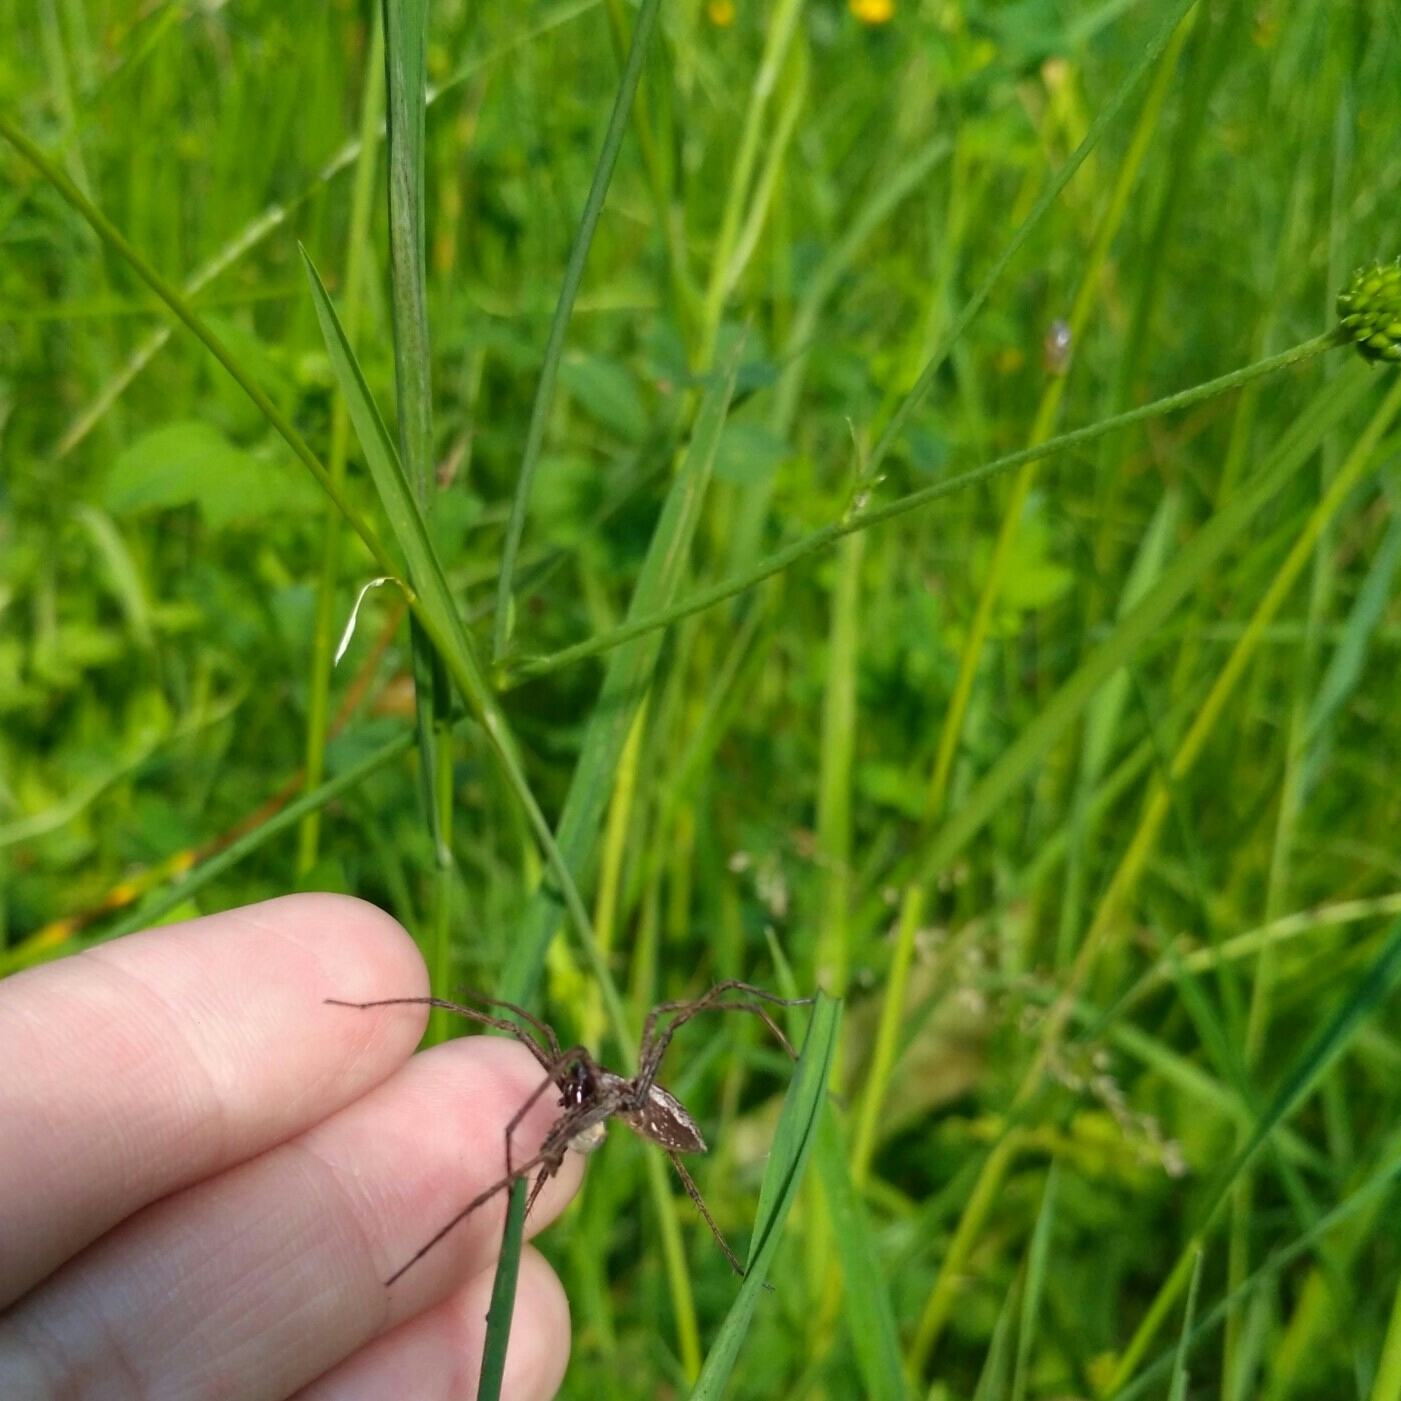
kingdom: Animalia
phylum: Arthropoda
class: Arachnida
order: Araneae
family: Pisauridae
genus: Pisaura
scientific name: Pisaura mirabilis
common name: Tent spider
